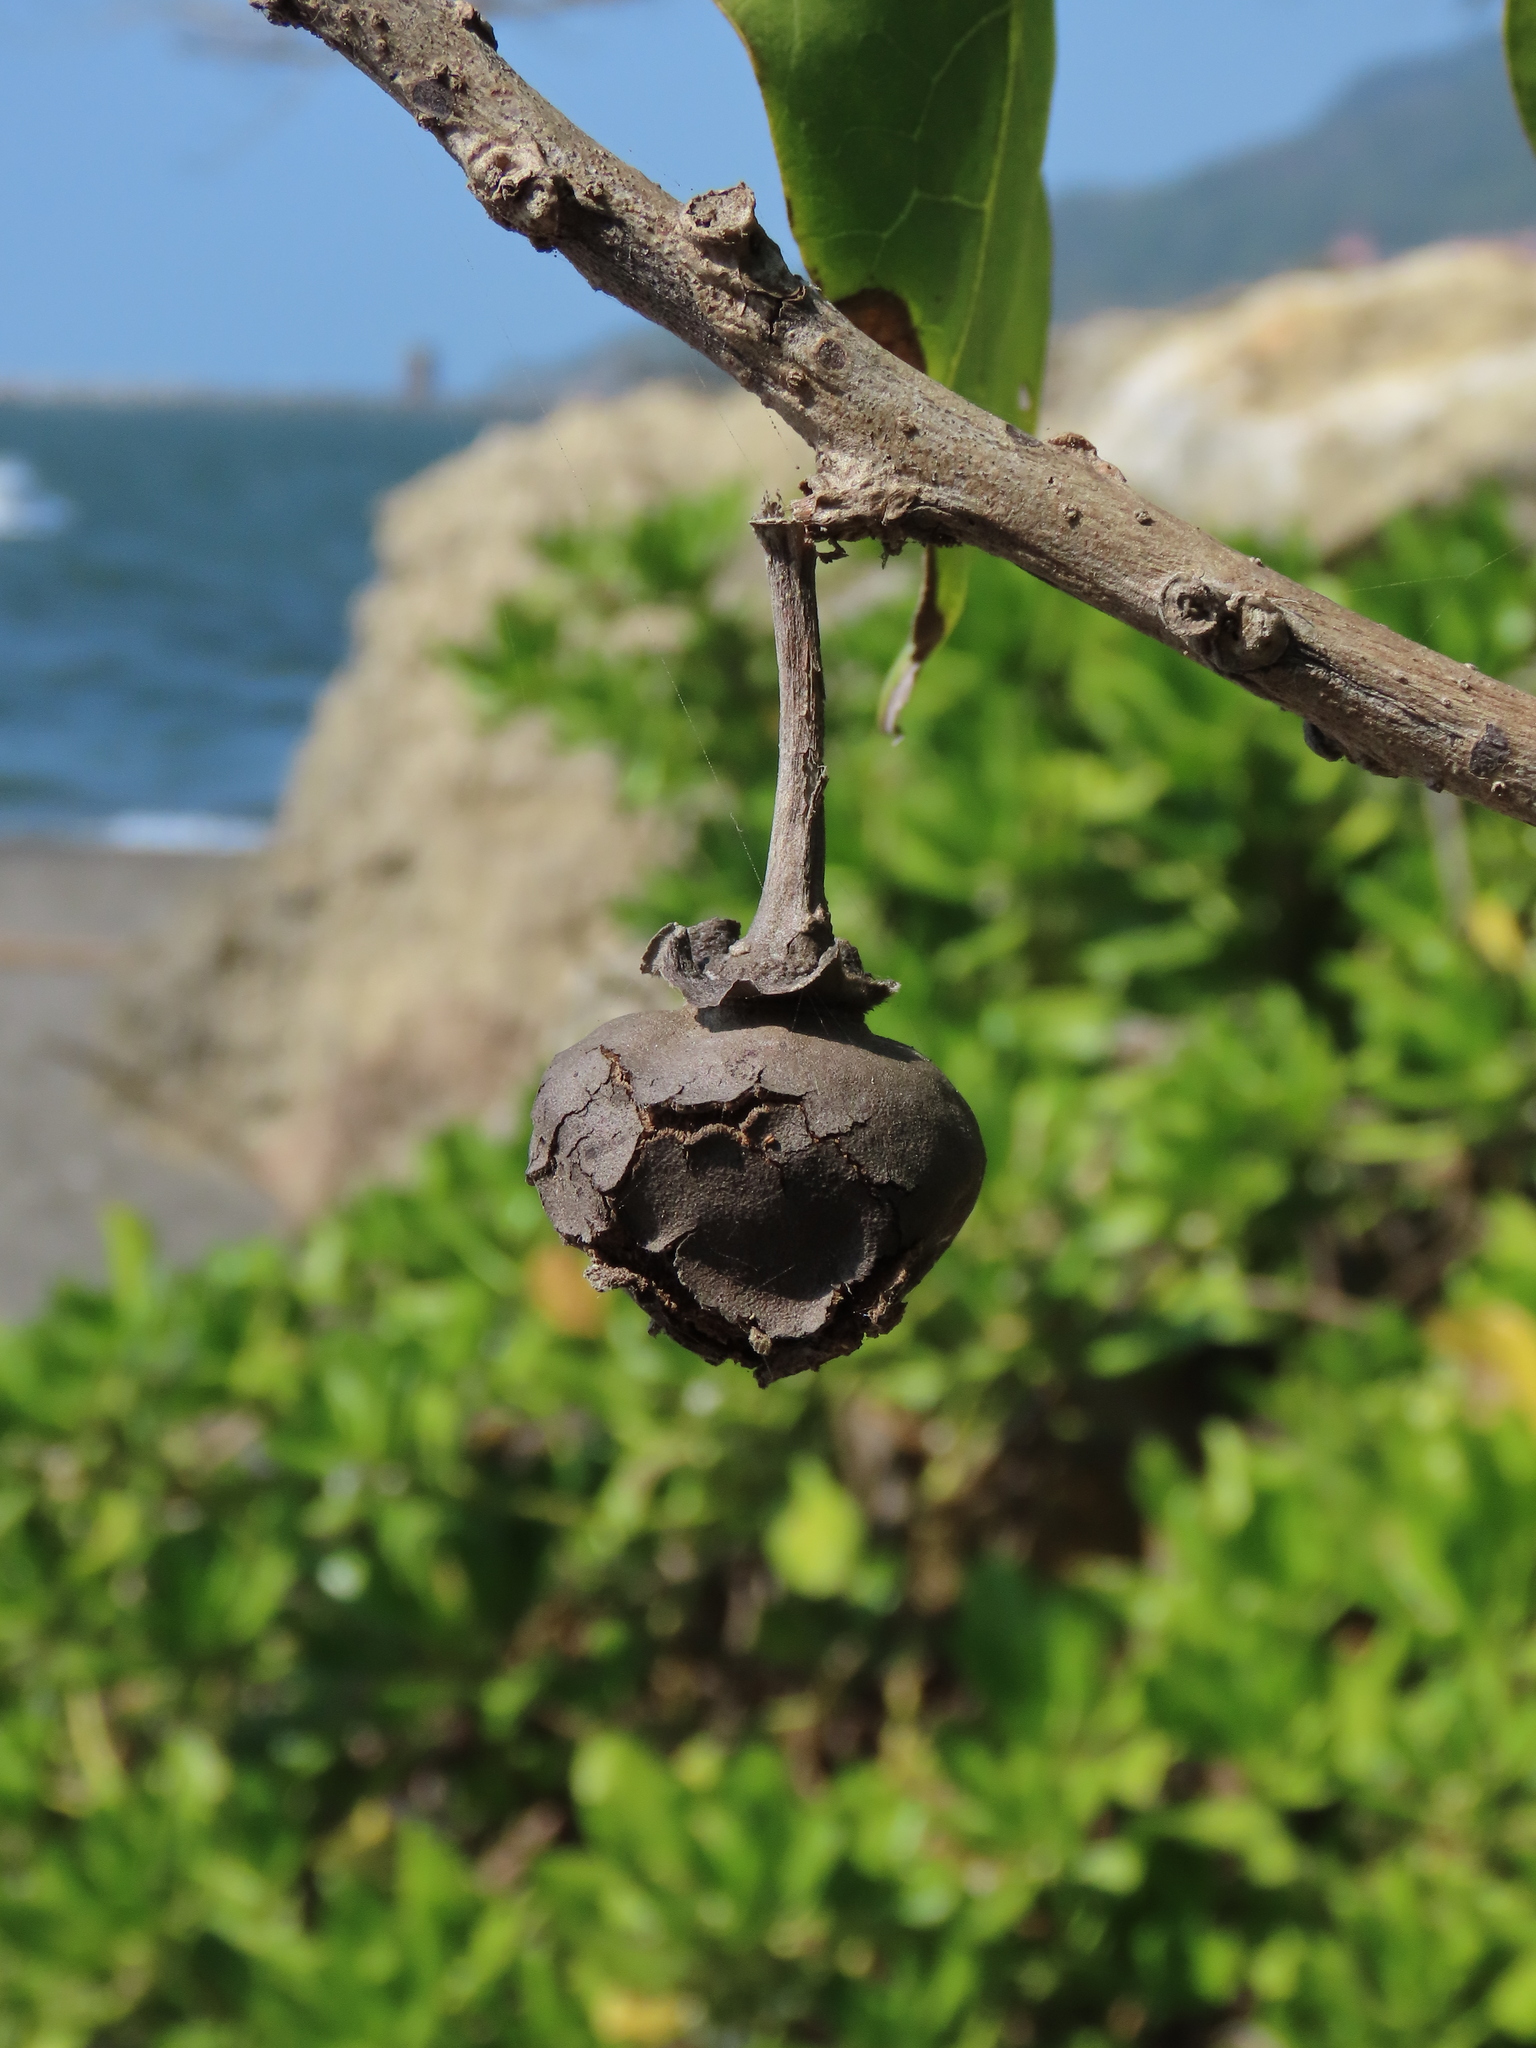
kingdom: Plantae
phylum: Tracheophyta
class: Magnoliopsida
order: Malvales
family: Malvaceae
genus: Thespesia
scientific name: Thespesia populnea
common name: Seaside mahoe
